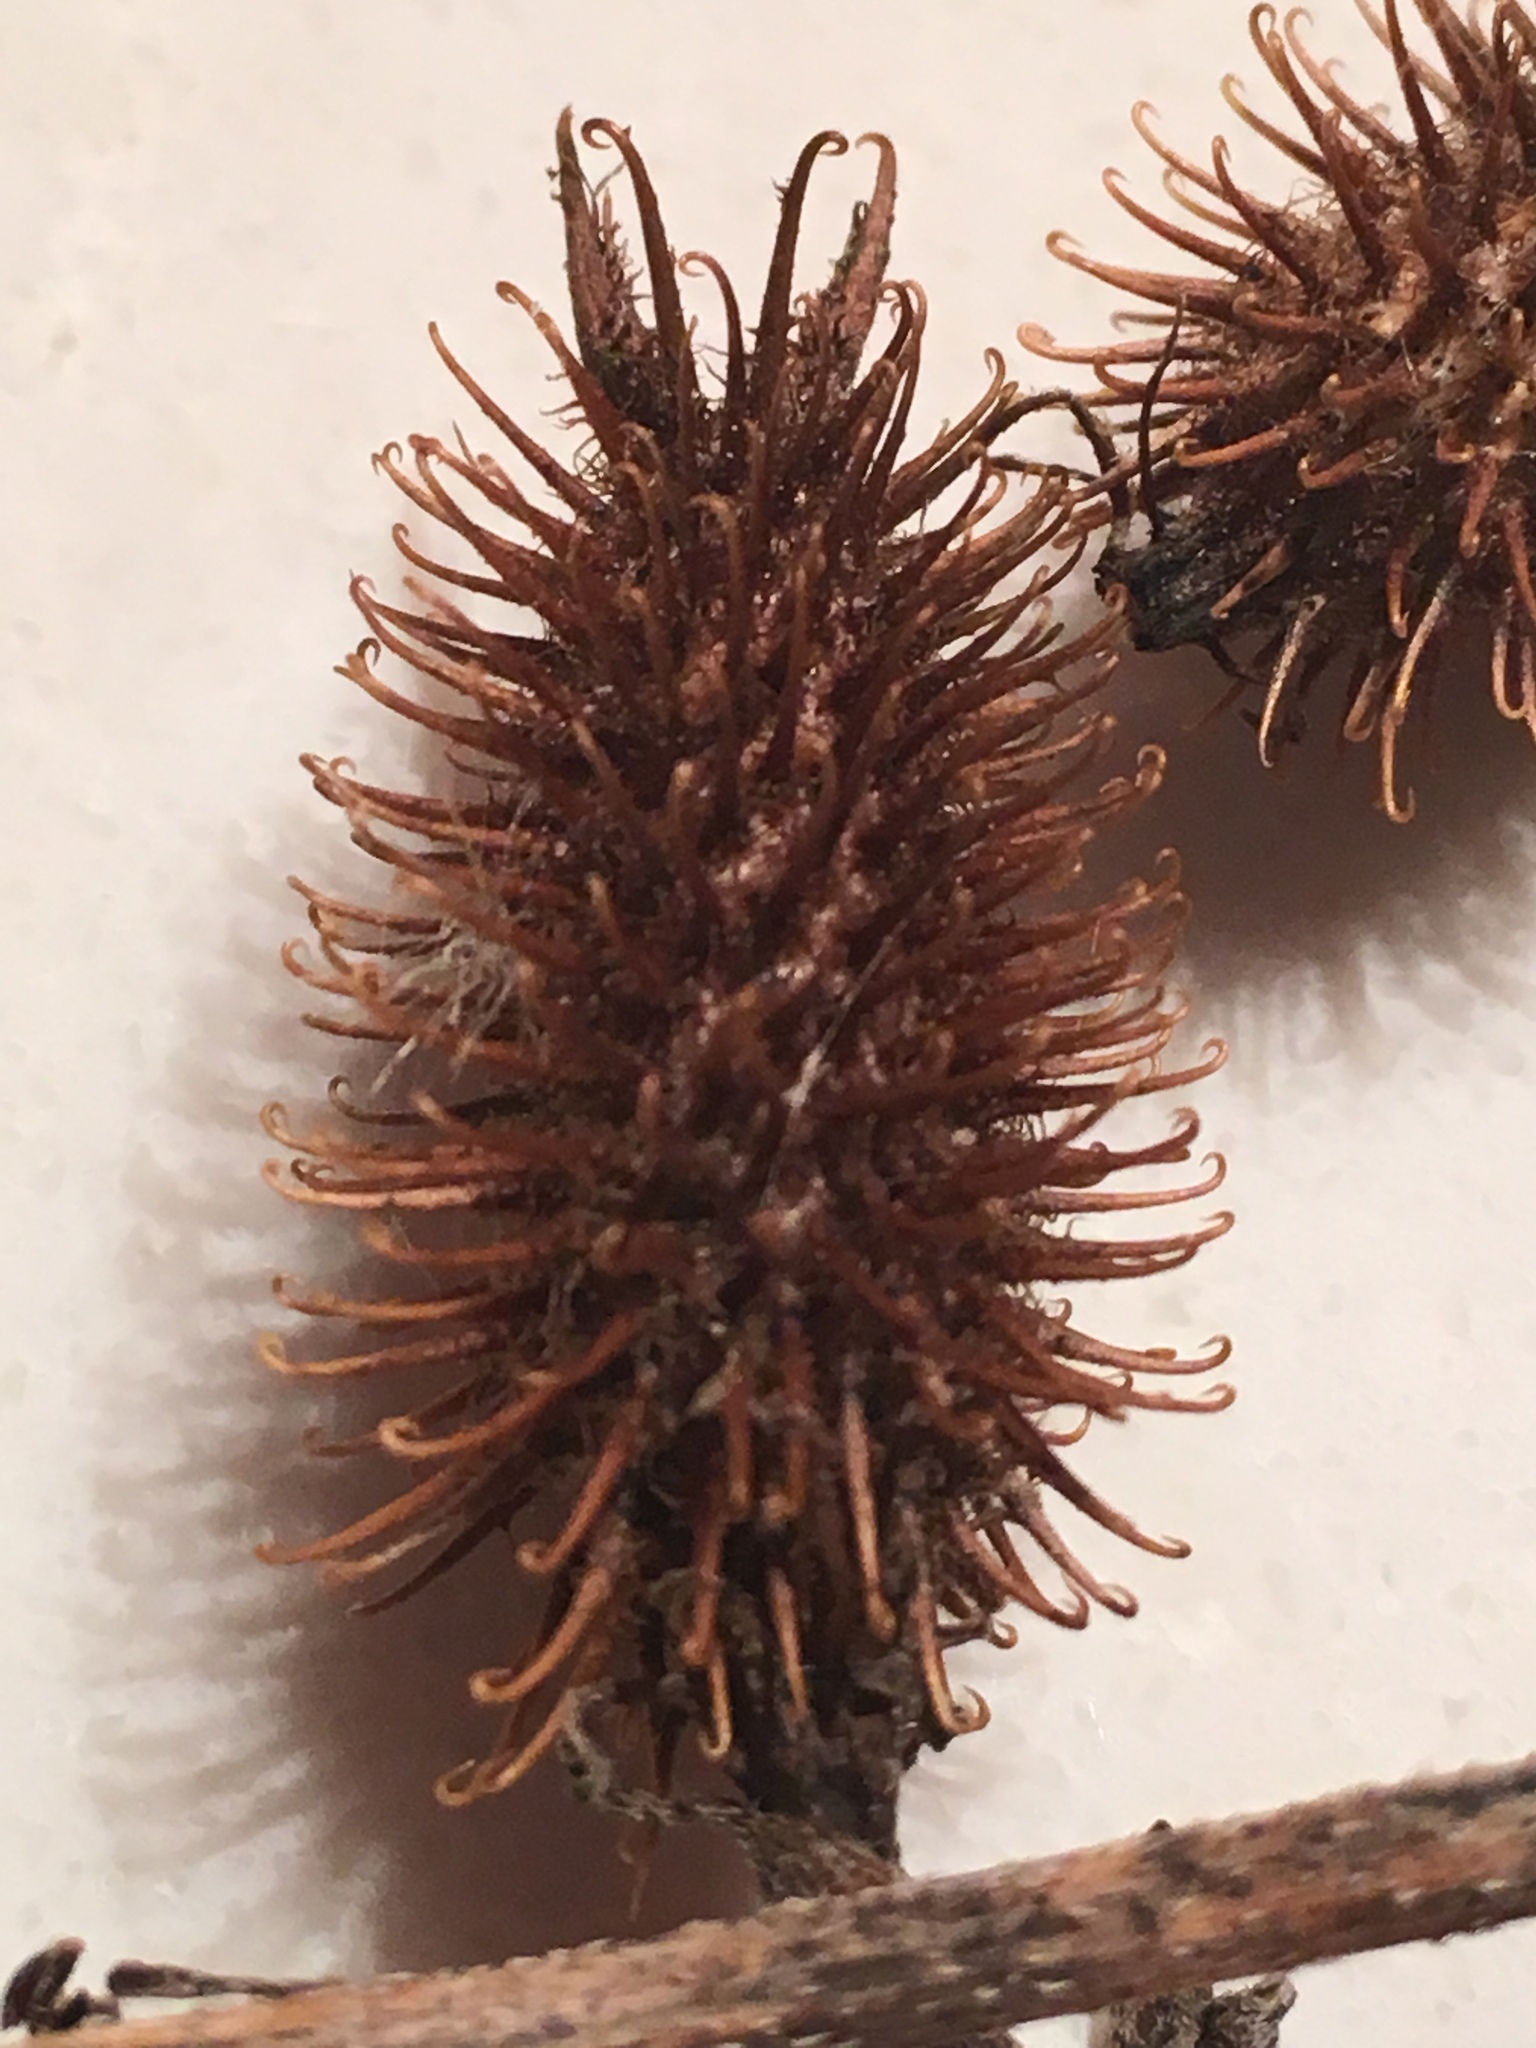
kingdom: Plantae
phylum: Tracheophyta
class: Magnoliopsida
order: Asterales
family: Asteraceae
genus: Xanthium
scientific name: Xanthium strumarium
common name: Rough cocklebur
